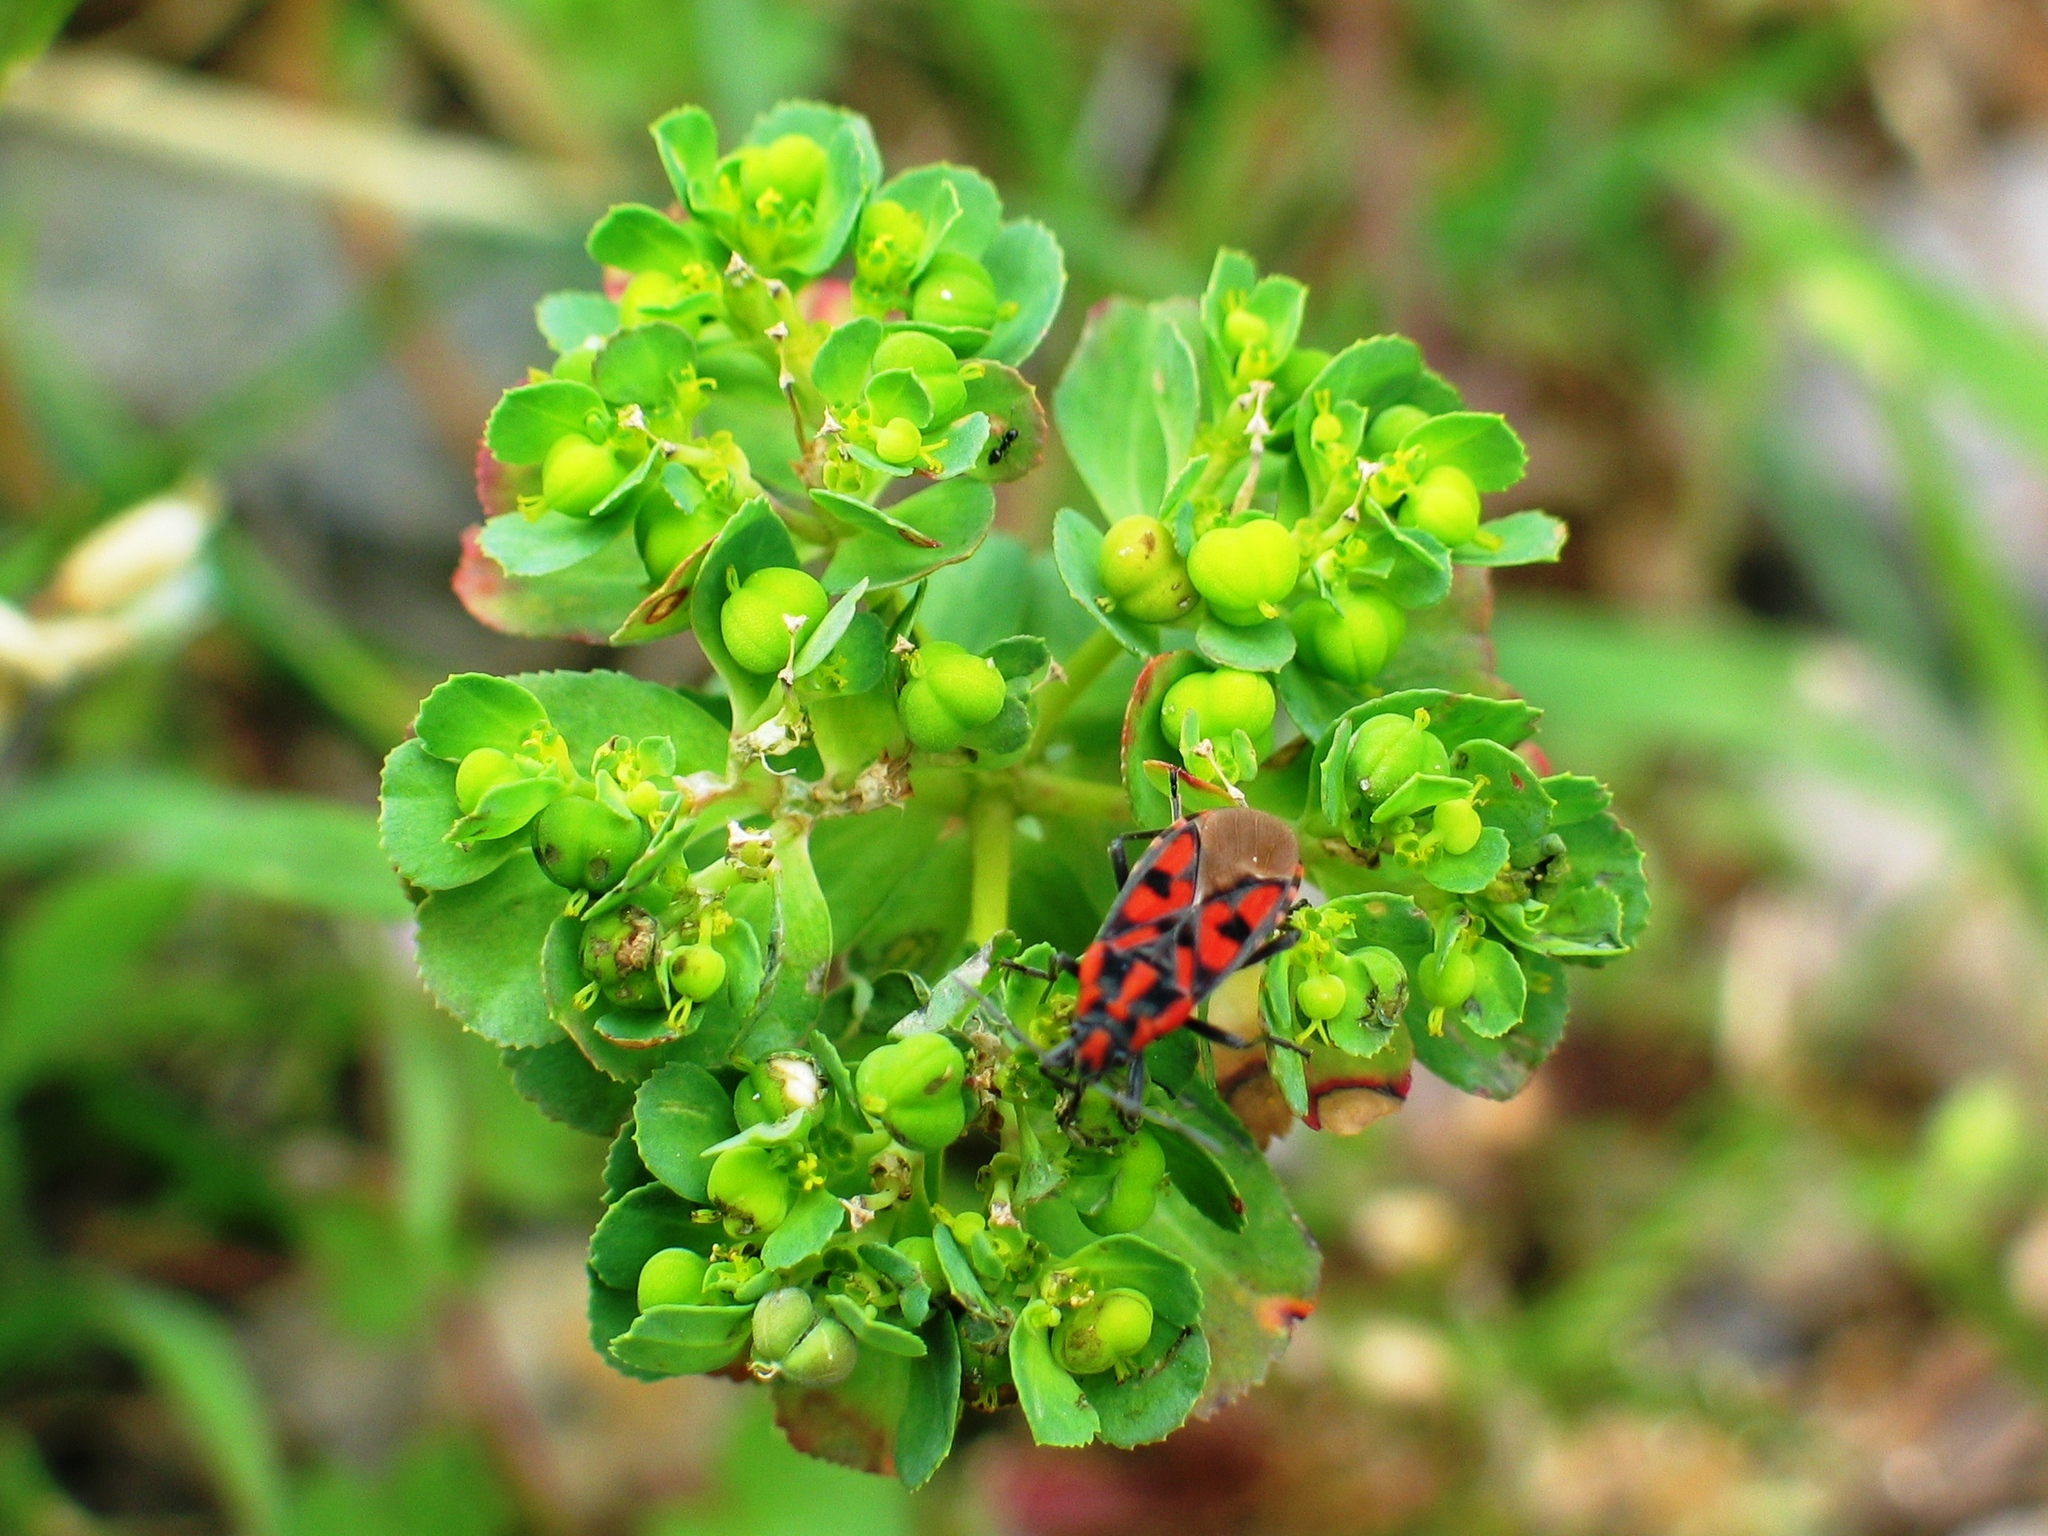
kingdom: Animalia
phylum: Arthropoda
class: Insecta
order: Hemiptera
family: Lygaeidae
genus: Spilostethus
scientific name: Spilostethus saxatilis
